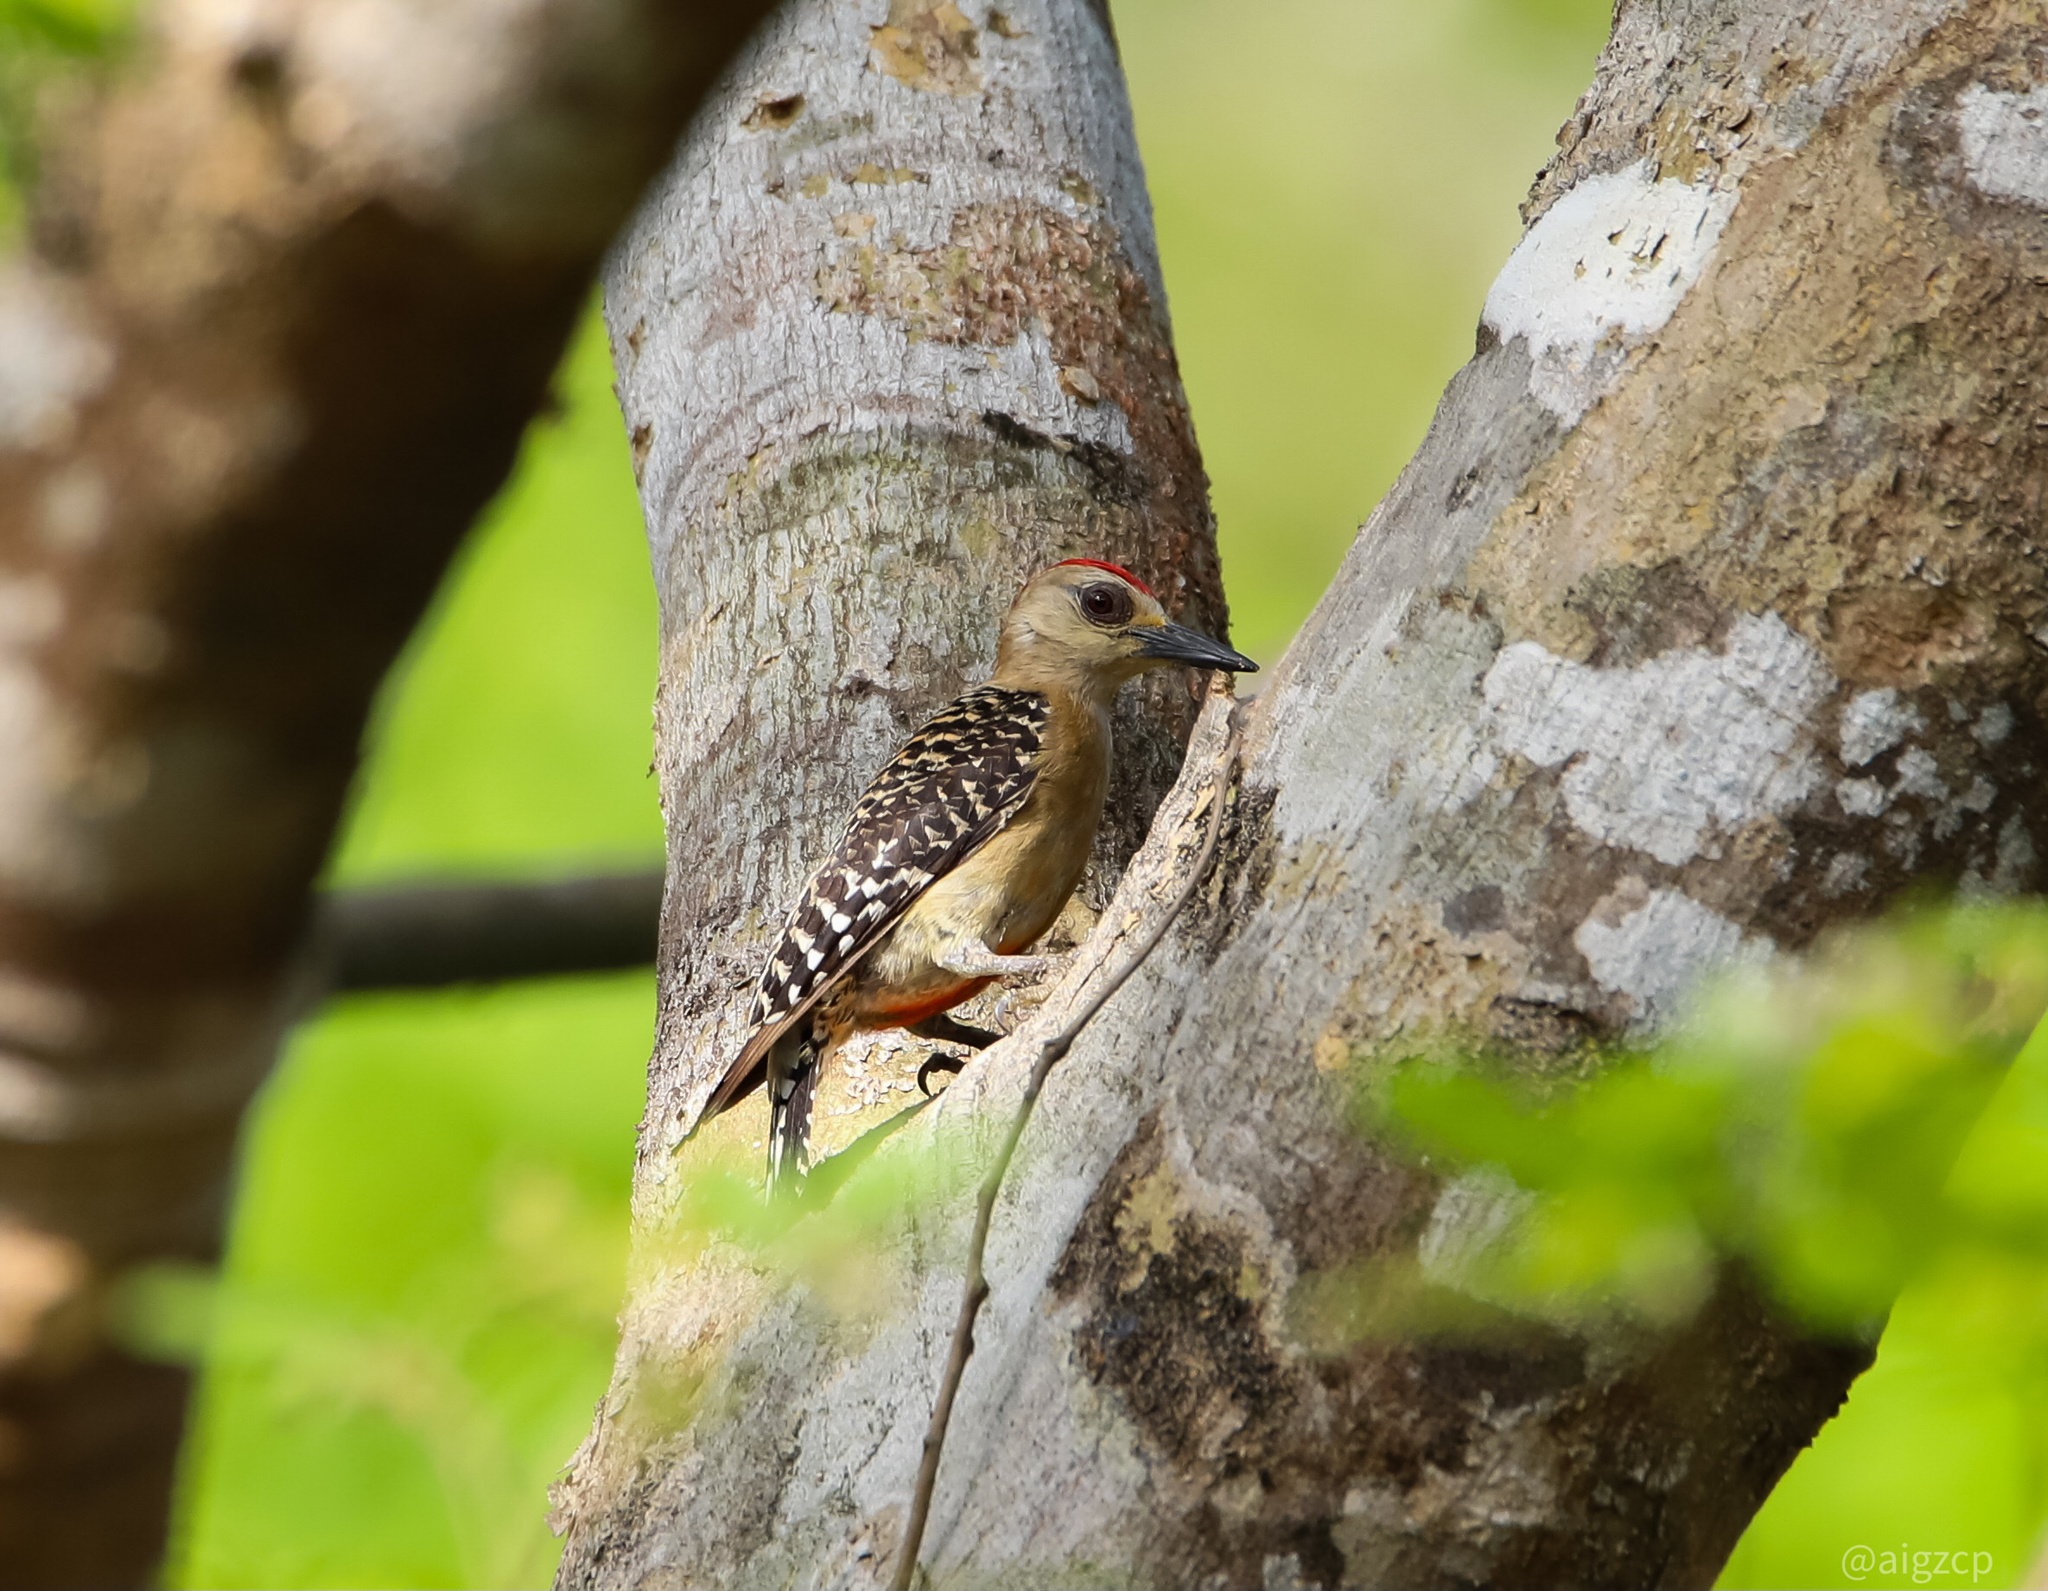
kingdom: Animalia
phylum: Chordata
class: Aves
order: Piciformes
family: Picidae
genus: Melanerpes
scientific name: Melanerpes rubricapillus
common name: Red-crowned woodpecker
